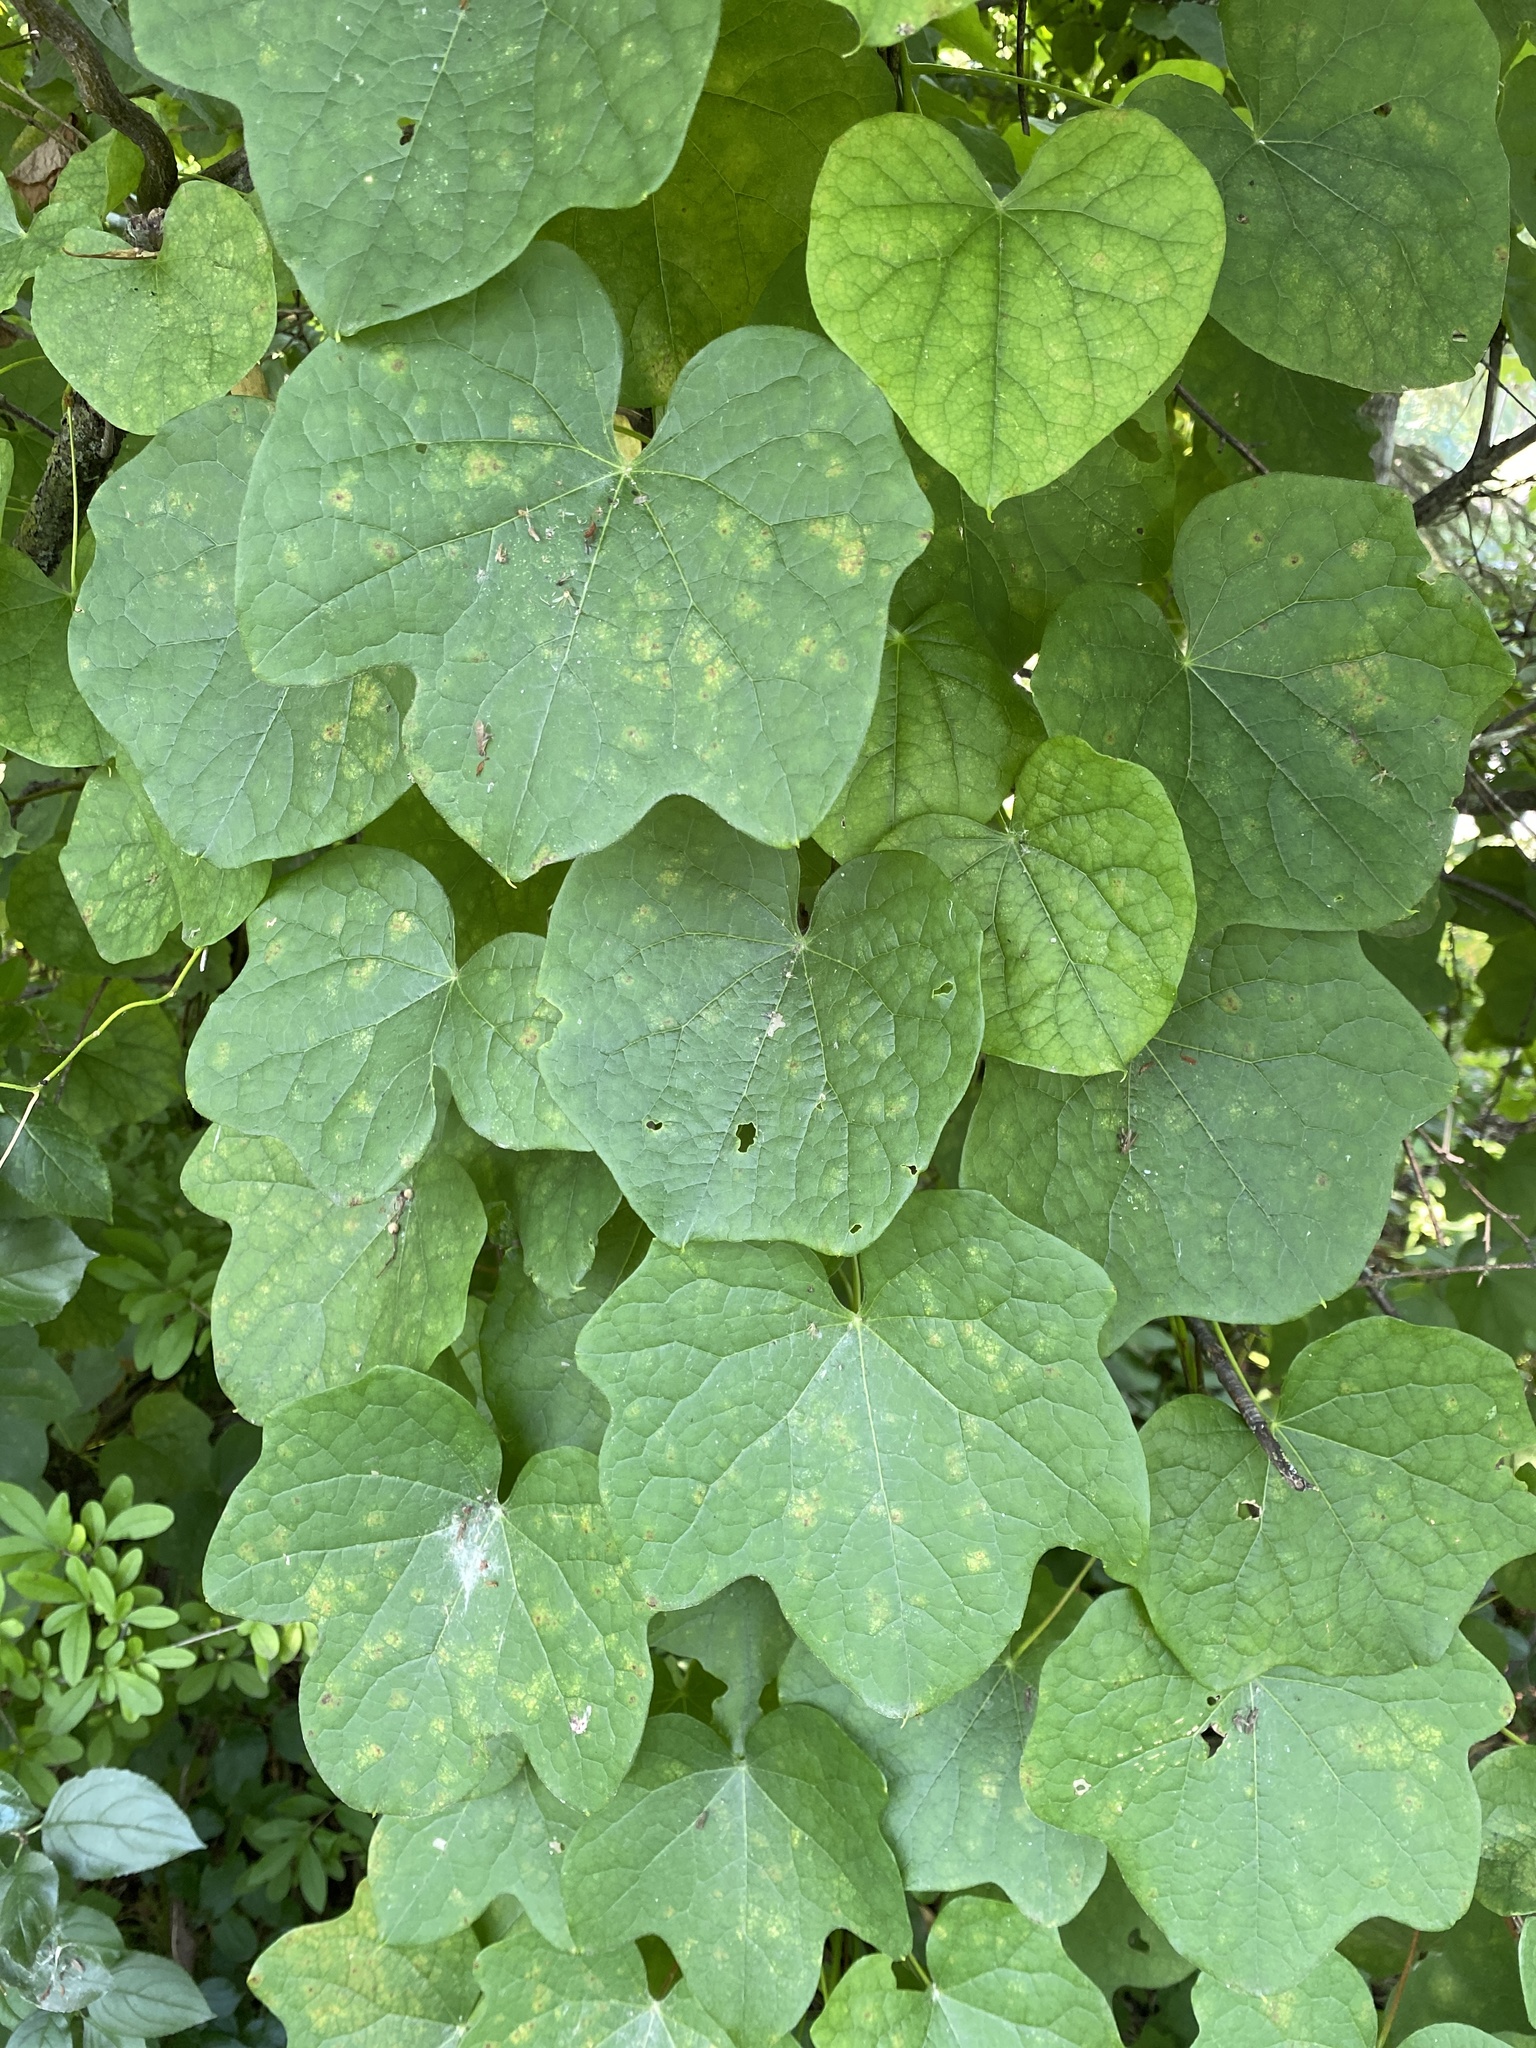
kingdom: Plantae
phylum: Tracheophyta
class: Magnoliopsida
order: Ranunculales
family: Menispermaceae
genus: Menispermum
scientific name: Menispermum canadense
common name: Moonseed
